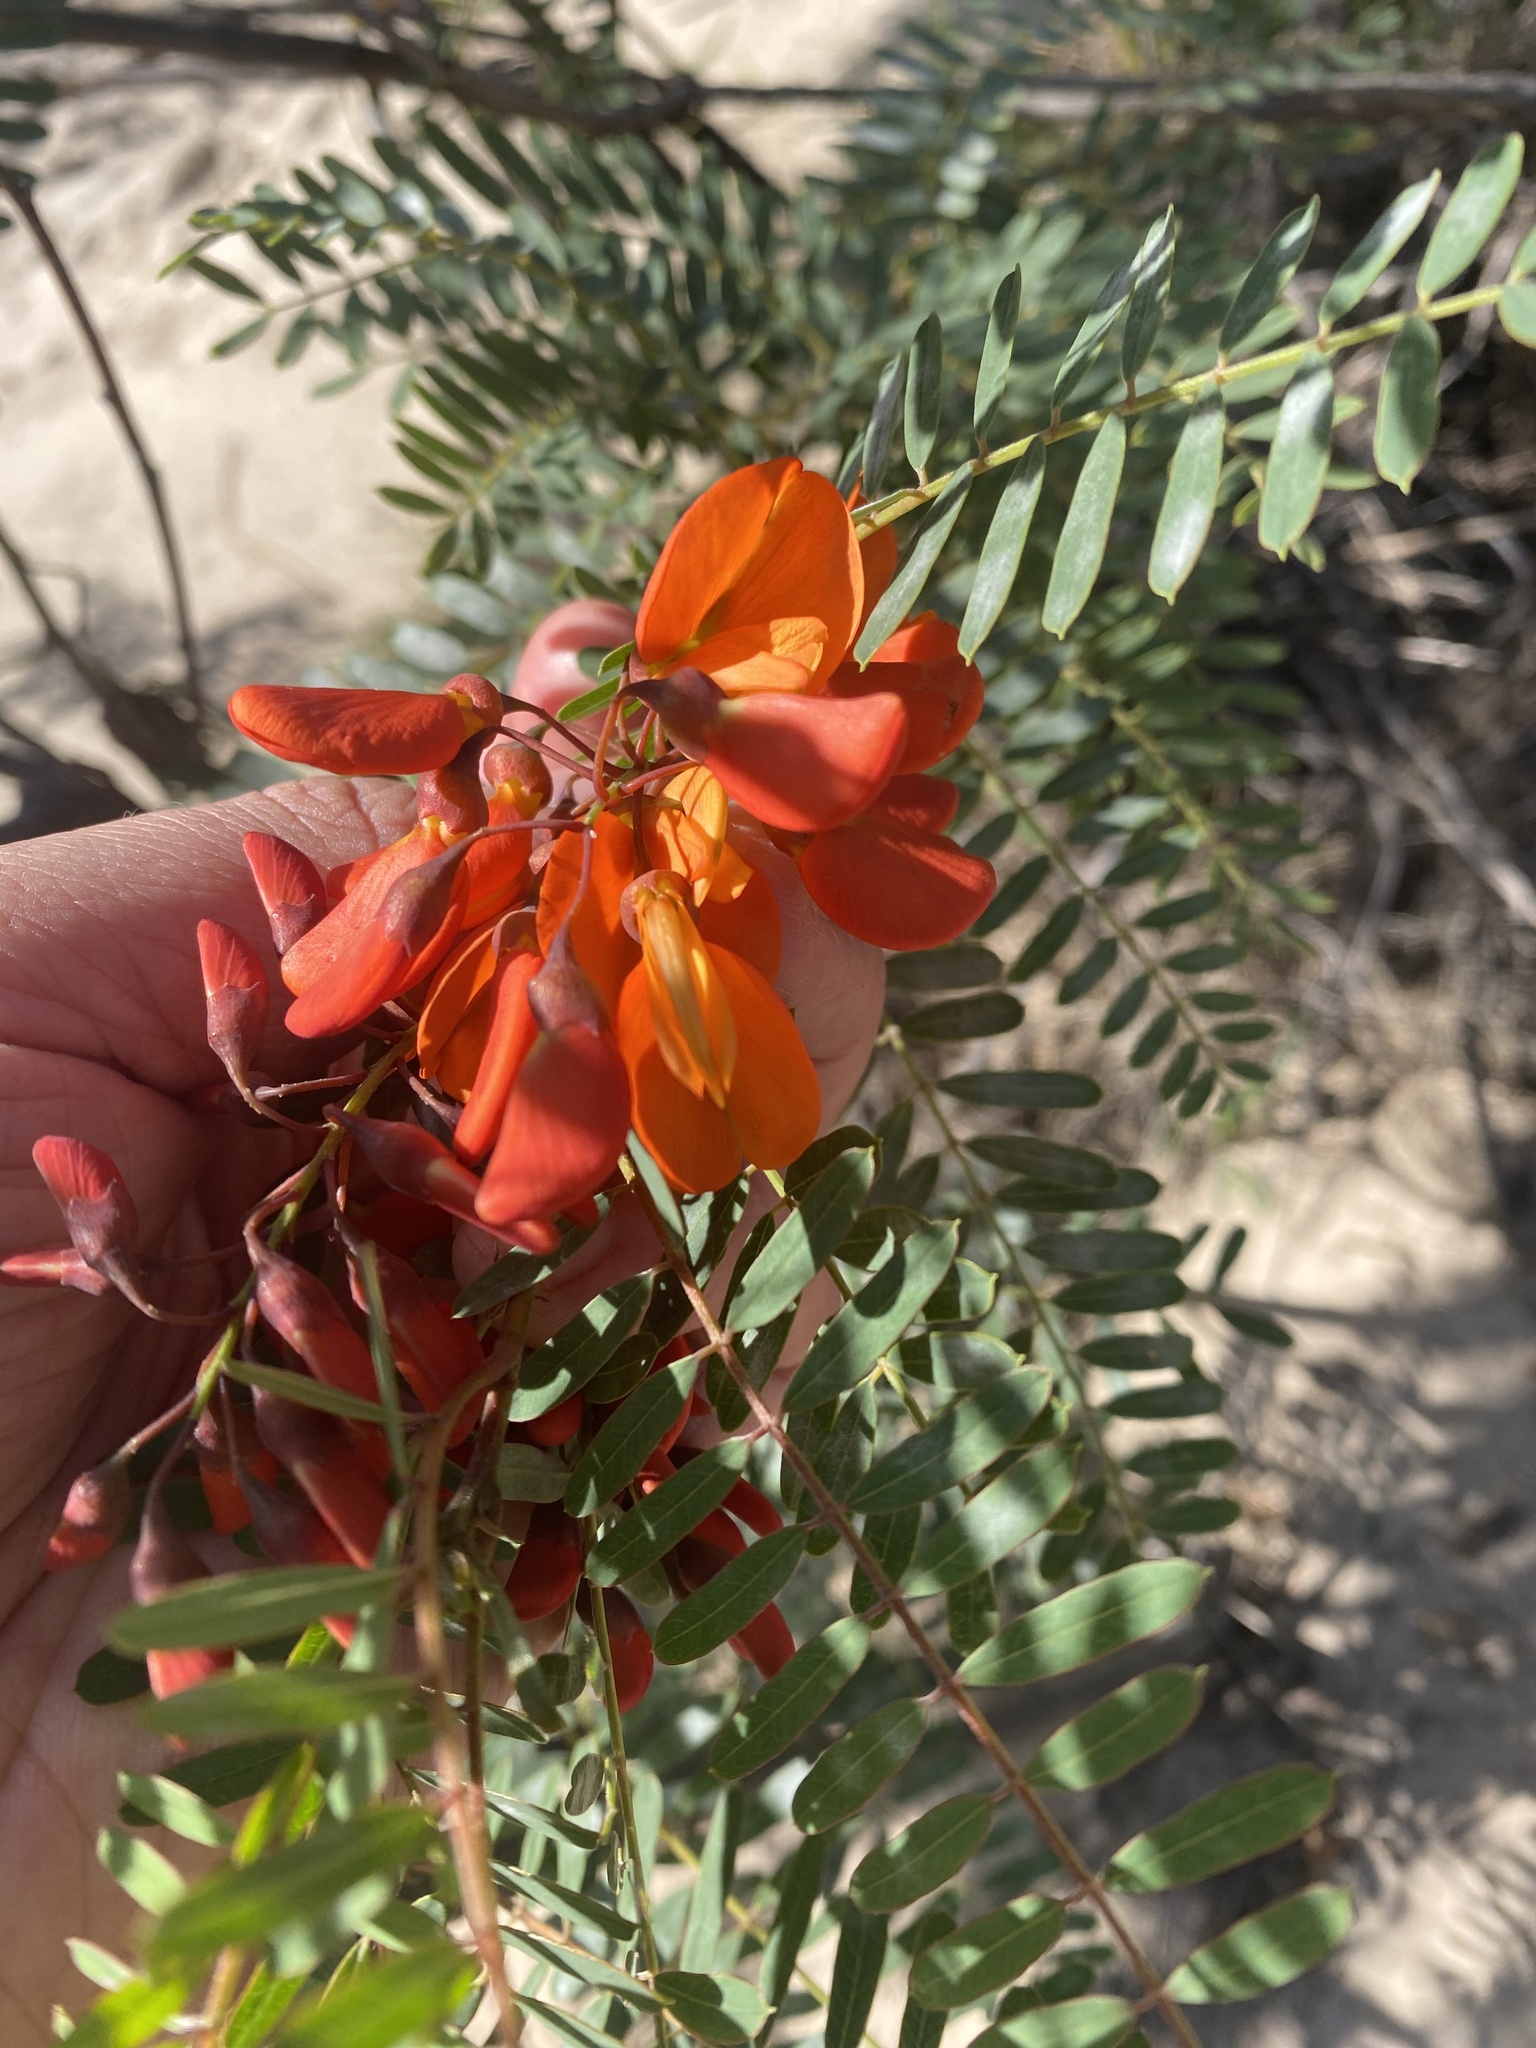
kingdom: Plantae
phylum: Tracheophyta
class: Magnoliopsida
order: Fabales
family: Fabaceae
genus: Sesbania
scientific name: Sesbania punicea
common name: Rattlebox
